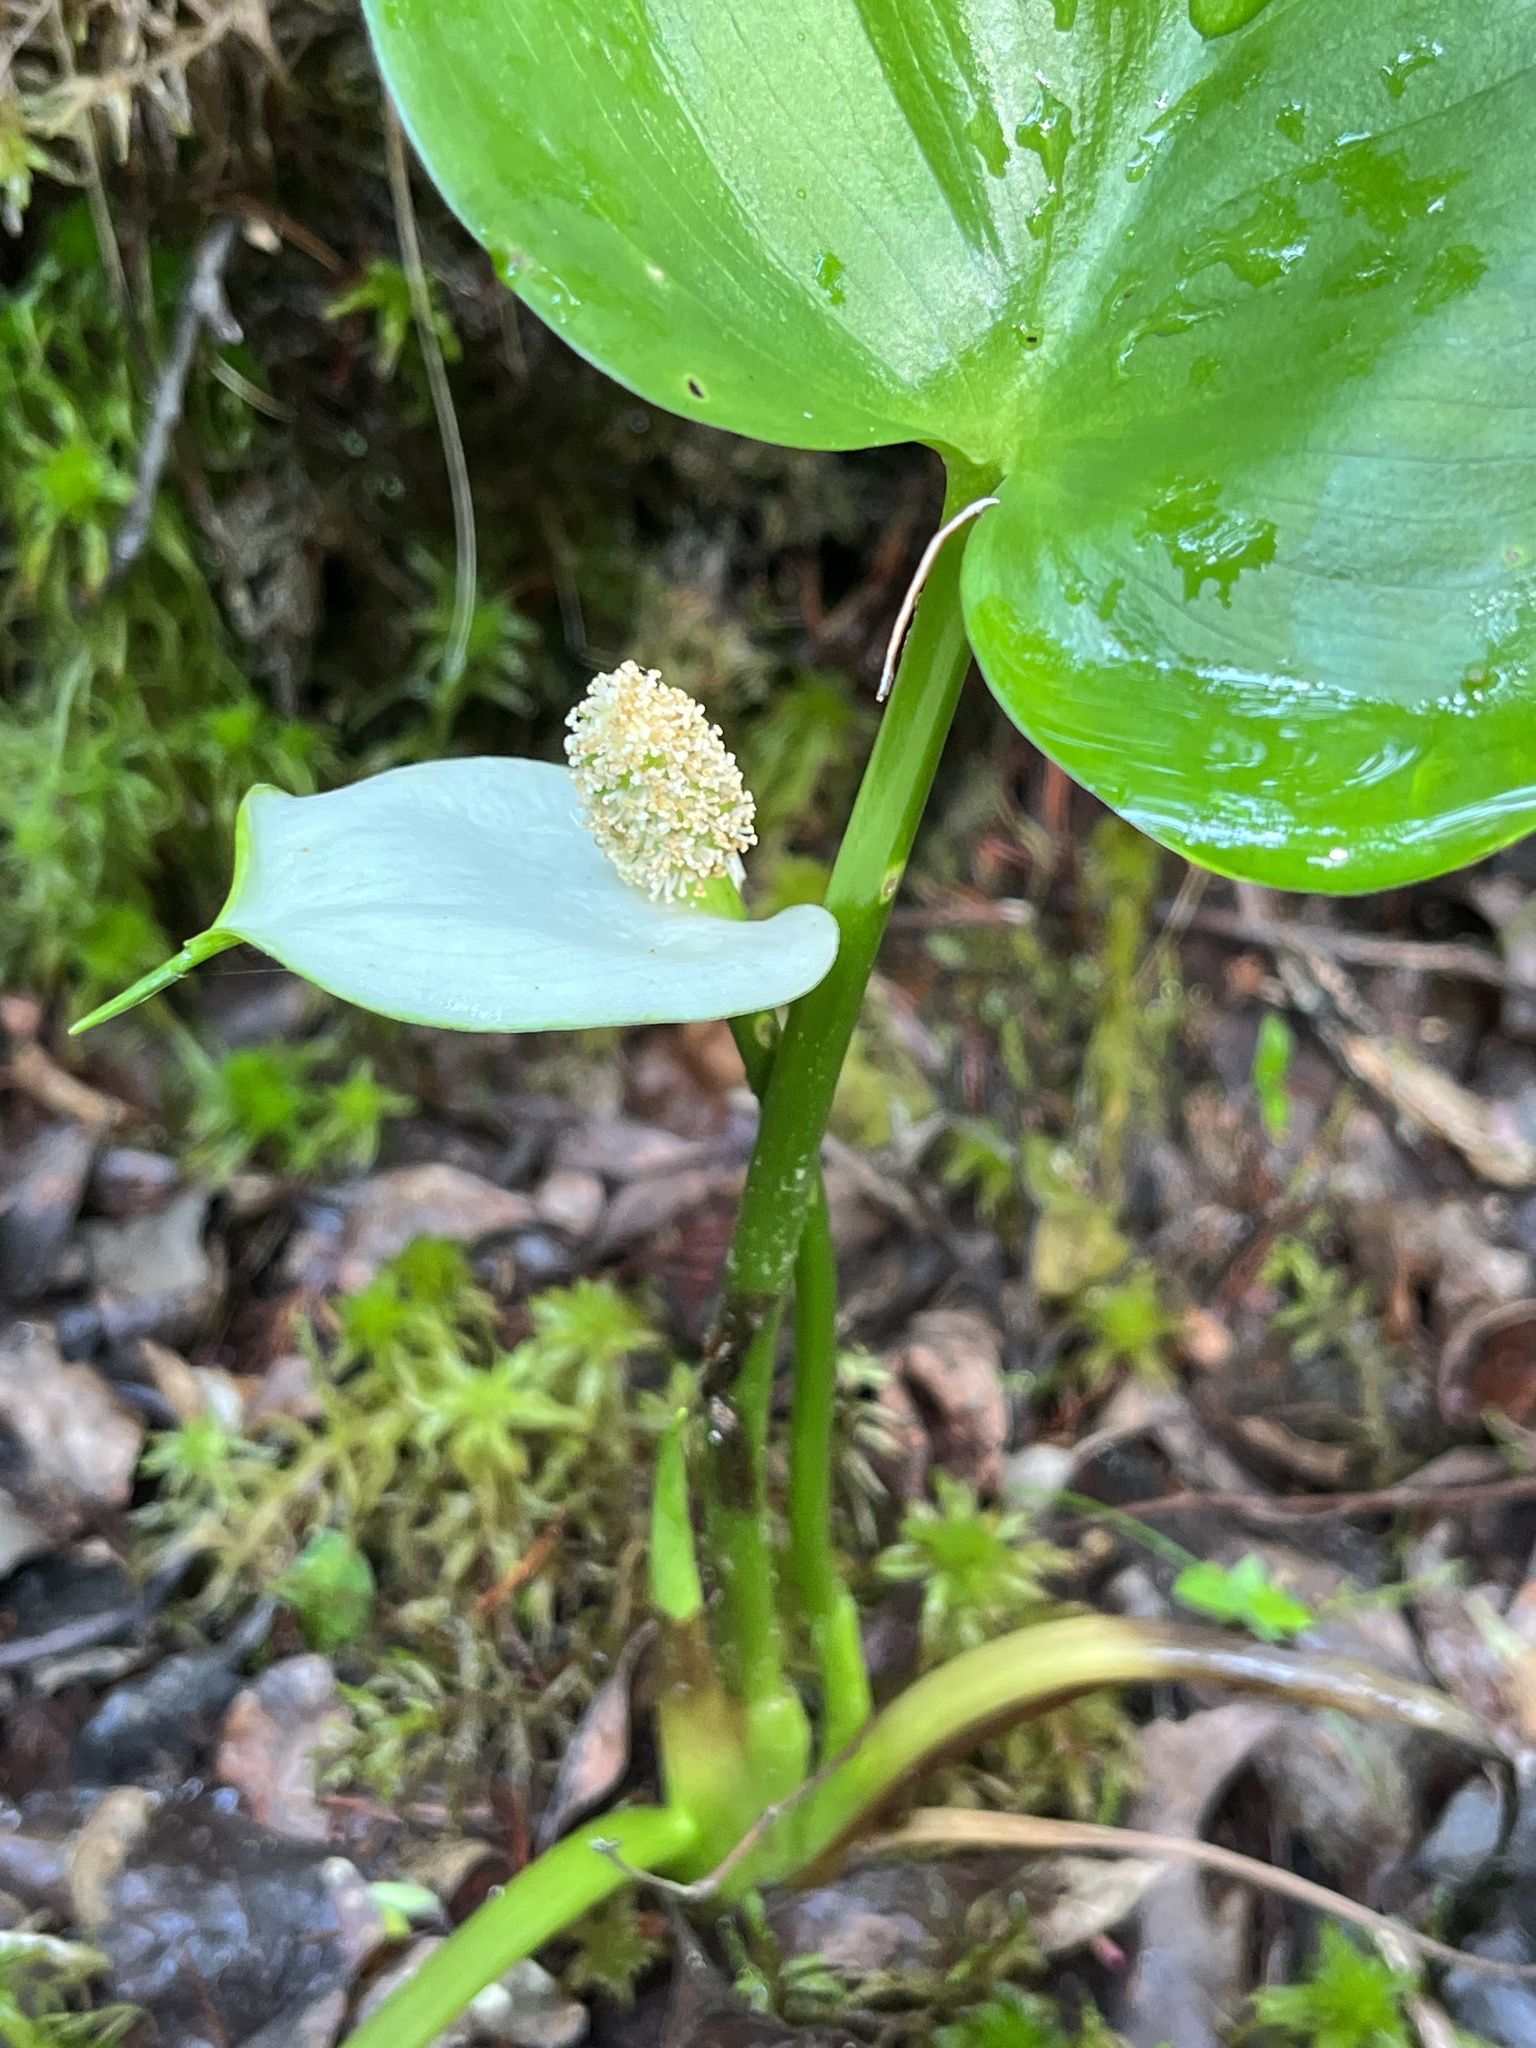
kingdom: Plantae
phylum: Tracheophyta
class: Liliopsida
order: Alismatales
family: Araceae
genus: Calla
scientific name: Calla palustris
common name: Bog arum
